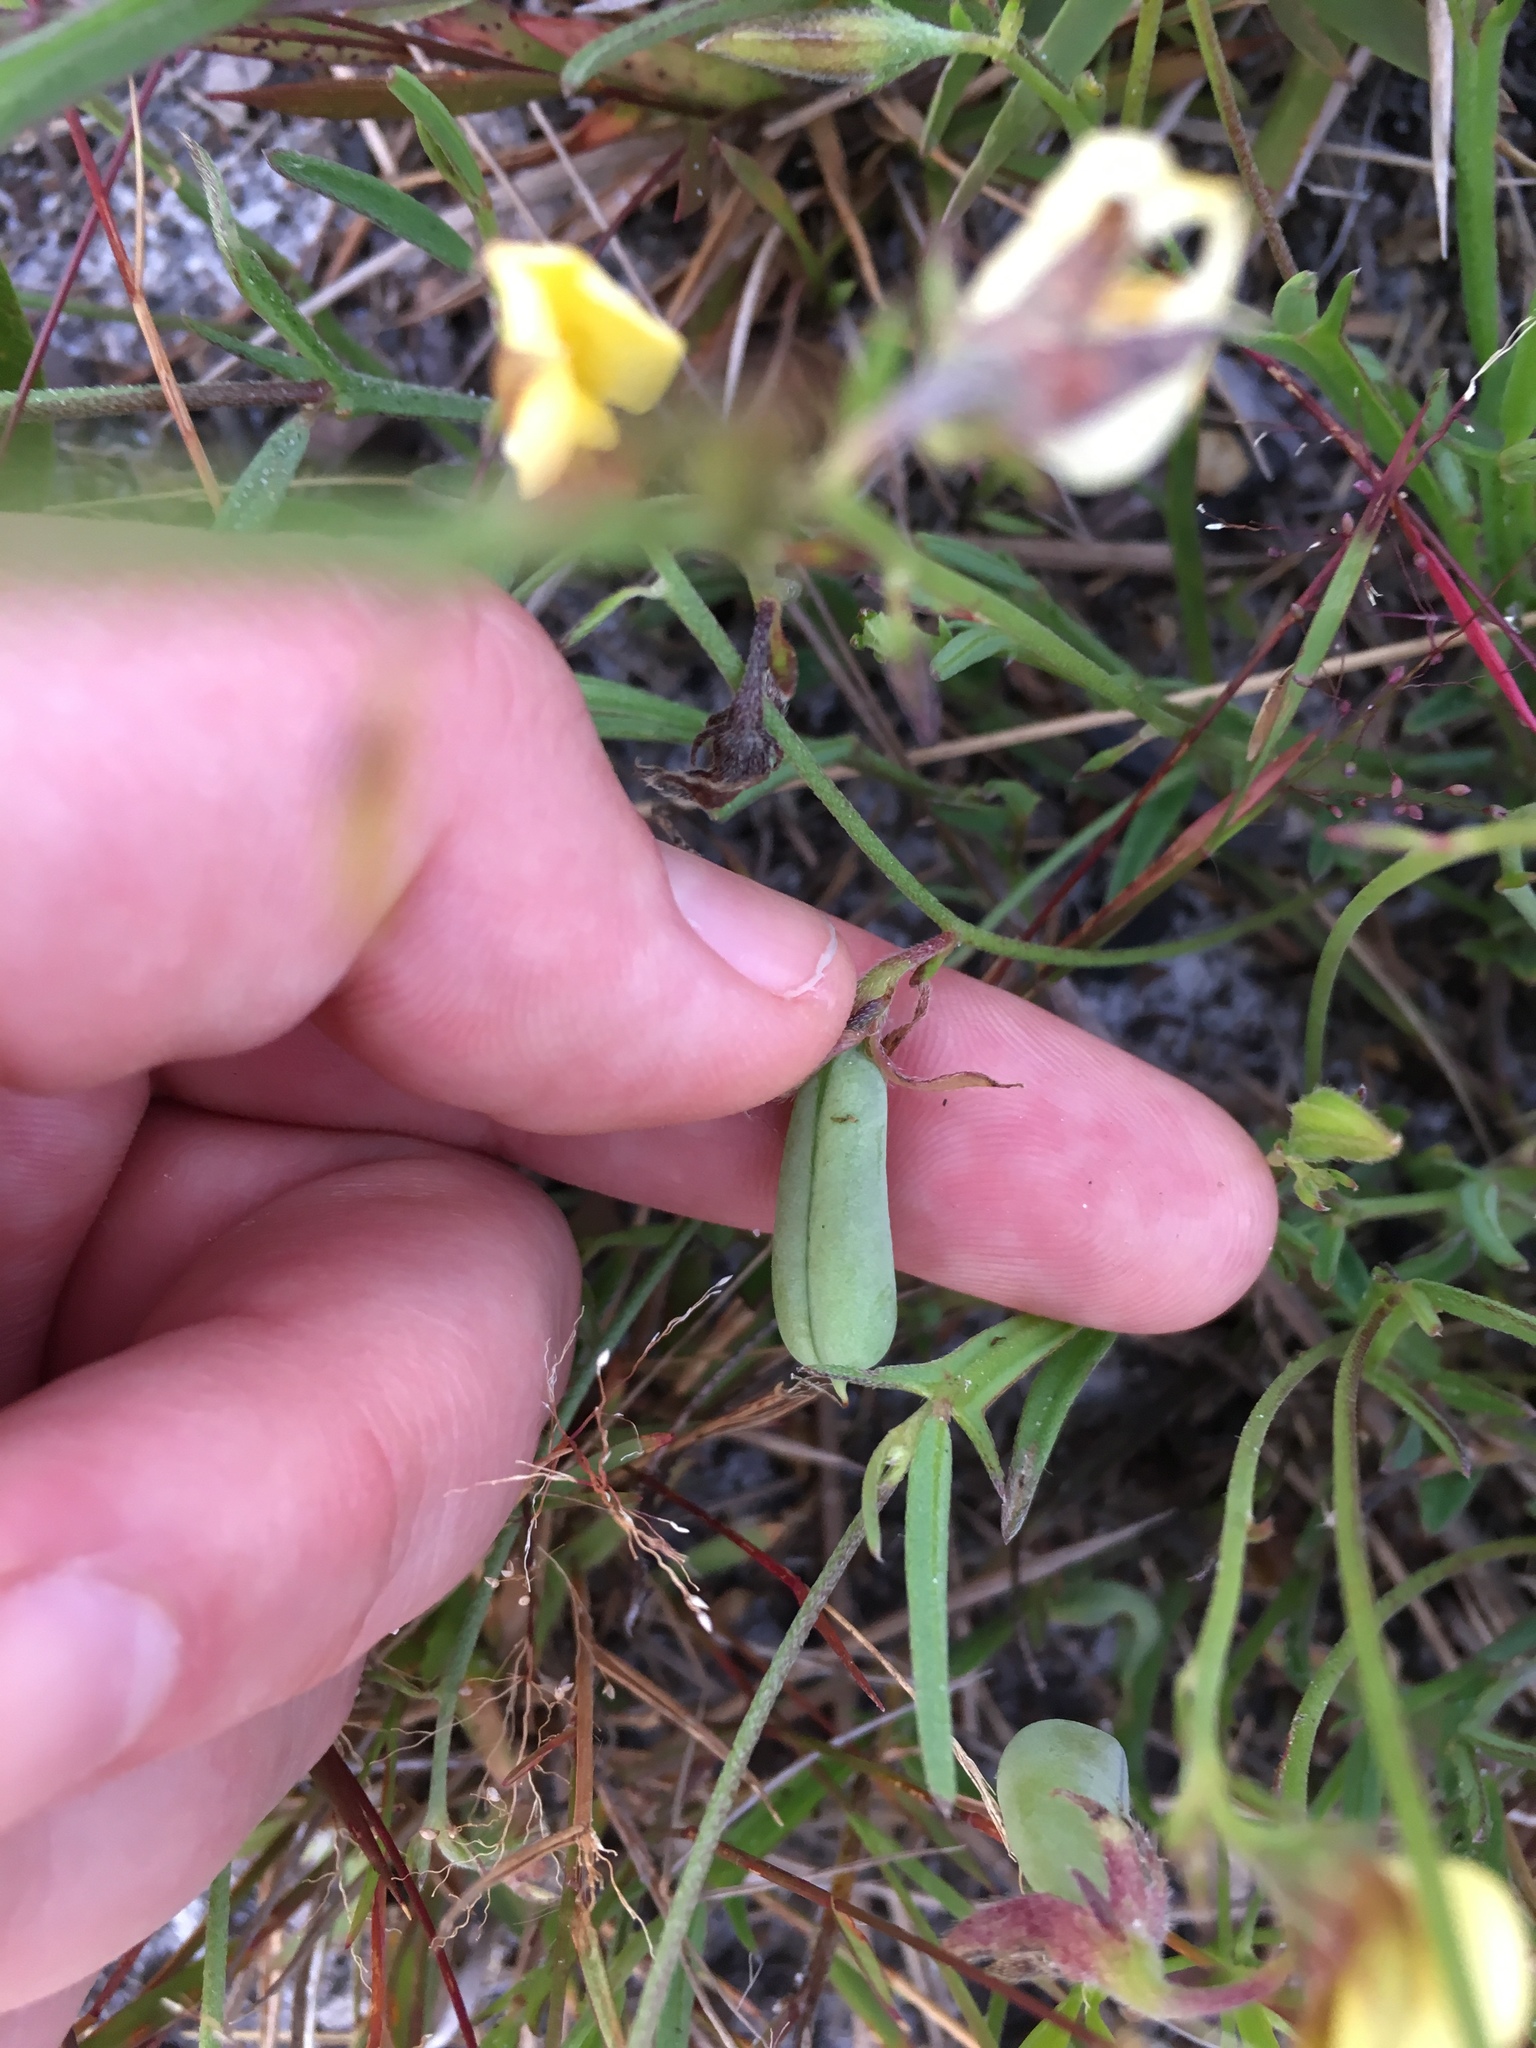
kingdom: Plantae
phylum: Tracheophyta
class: Magnoliopsida
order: Fabales
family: Fabaceae
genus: Crotalaria
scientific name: Crotalaria rotundifolia
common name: Prostrate rattlebox
